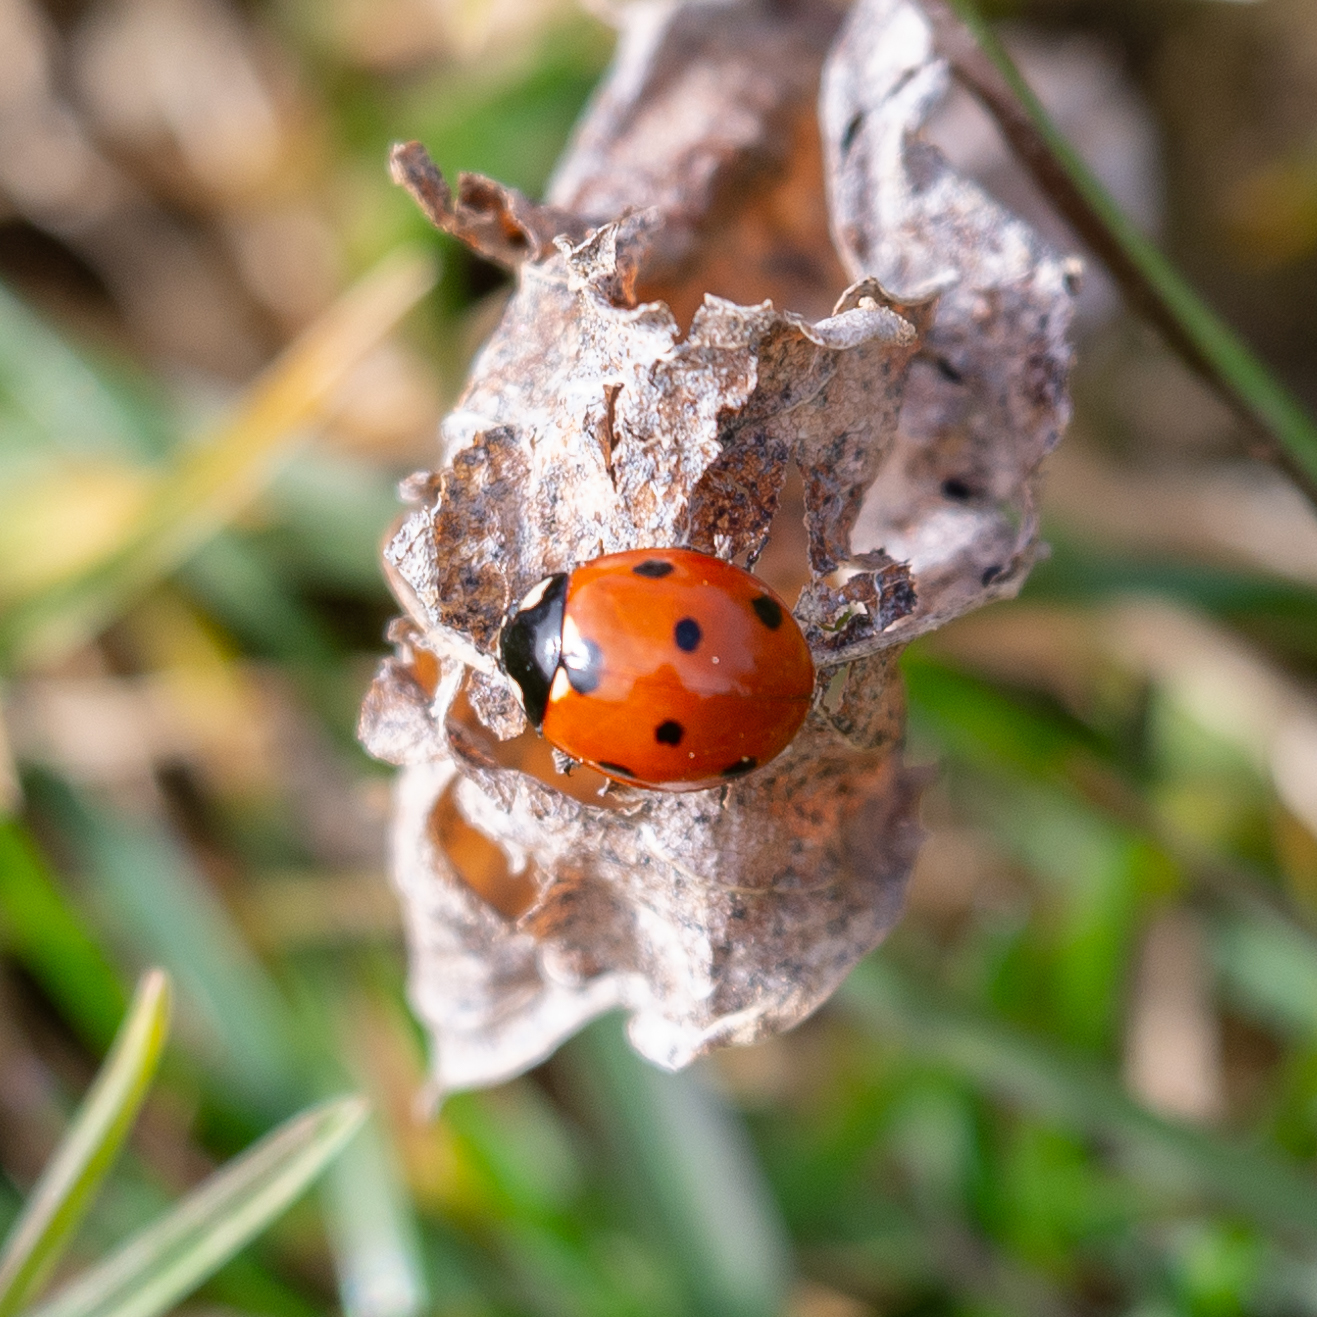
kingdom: Animalia
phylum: Arthropoda
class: Insecta
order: Coleoptera
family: Coccinellidae
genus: Coccinella
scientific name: Coccinella septempunctata
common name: Sevenspotted lady beetle
